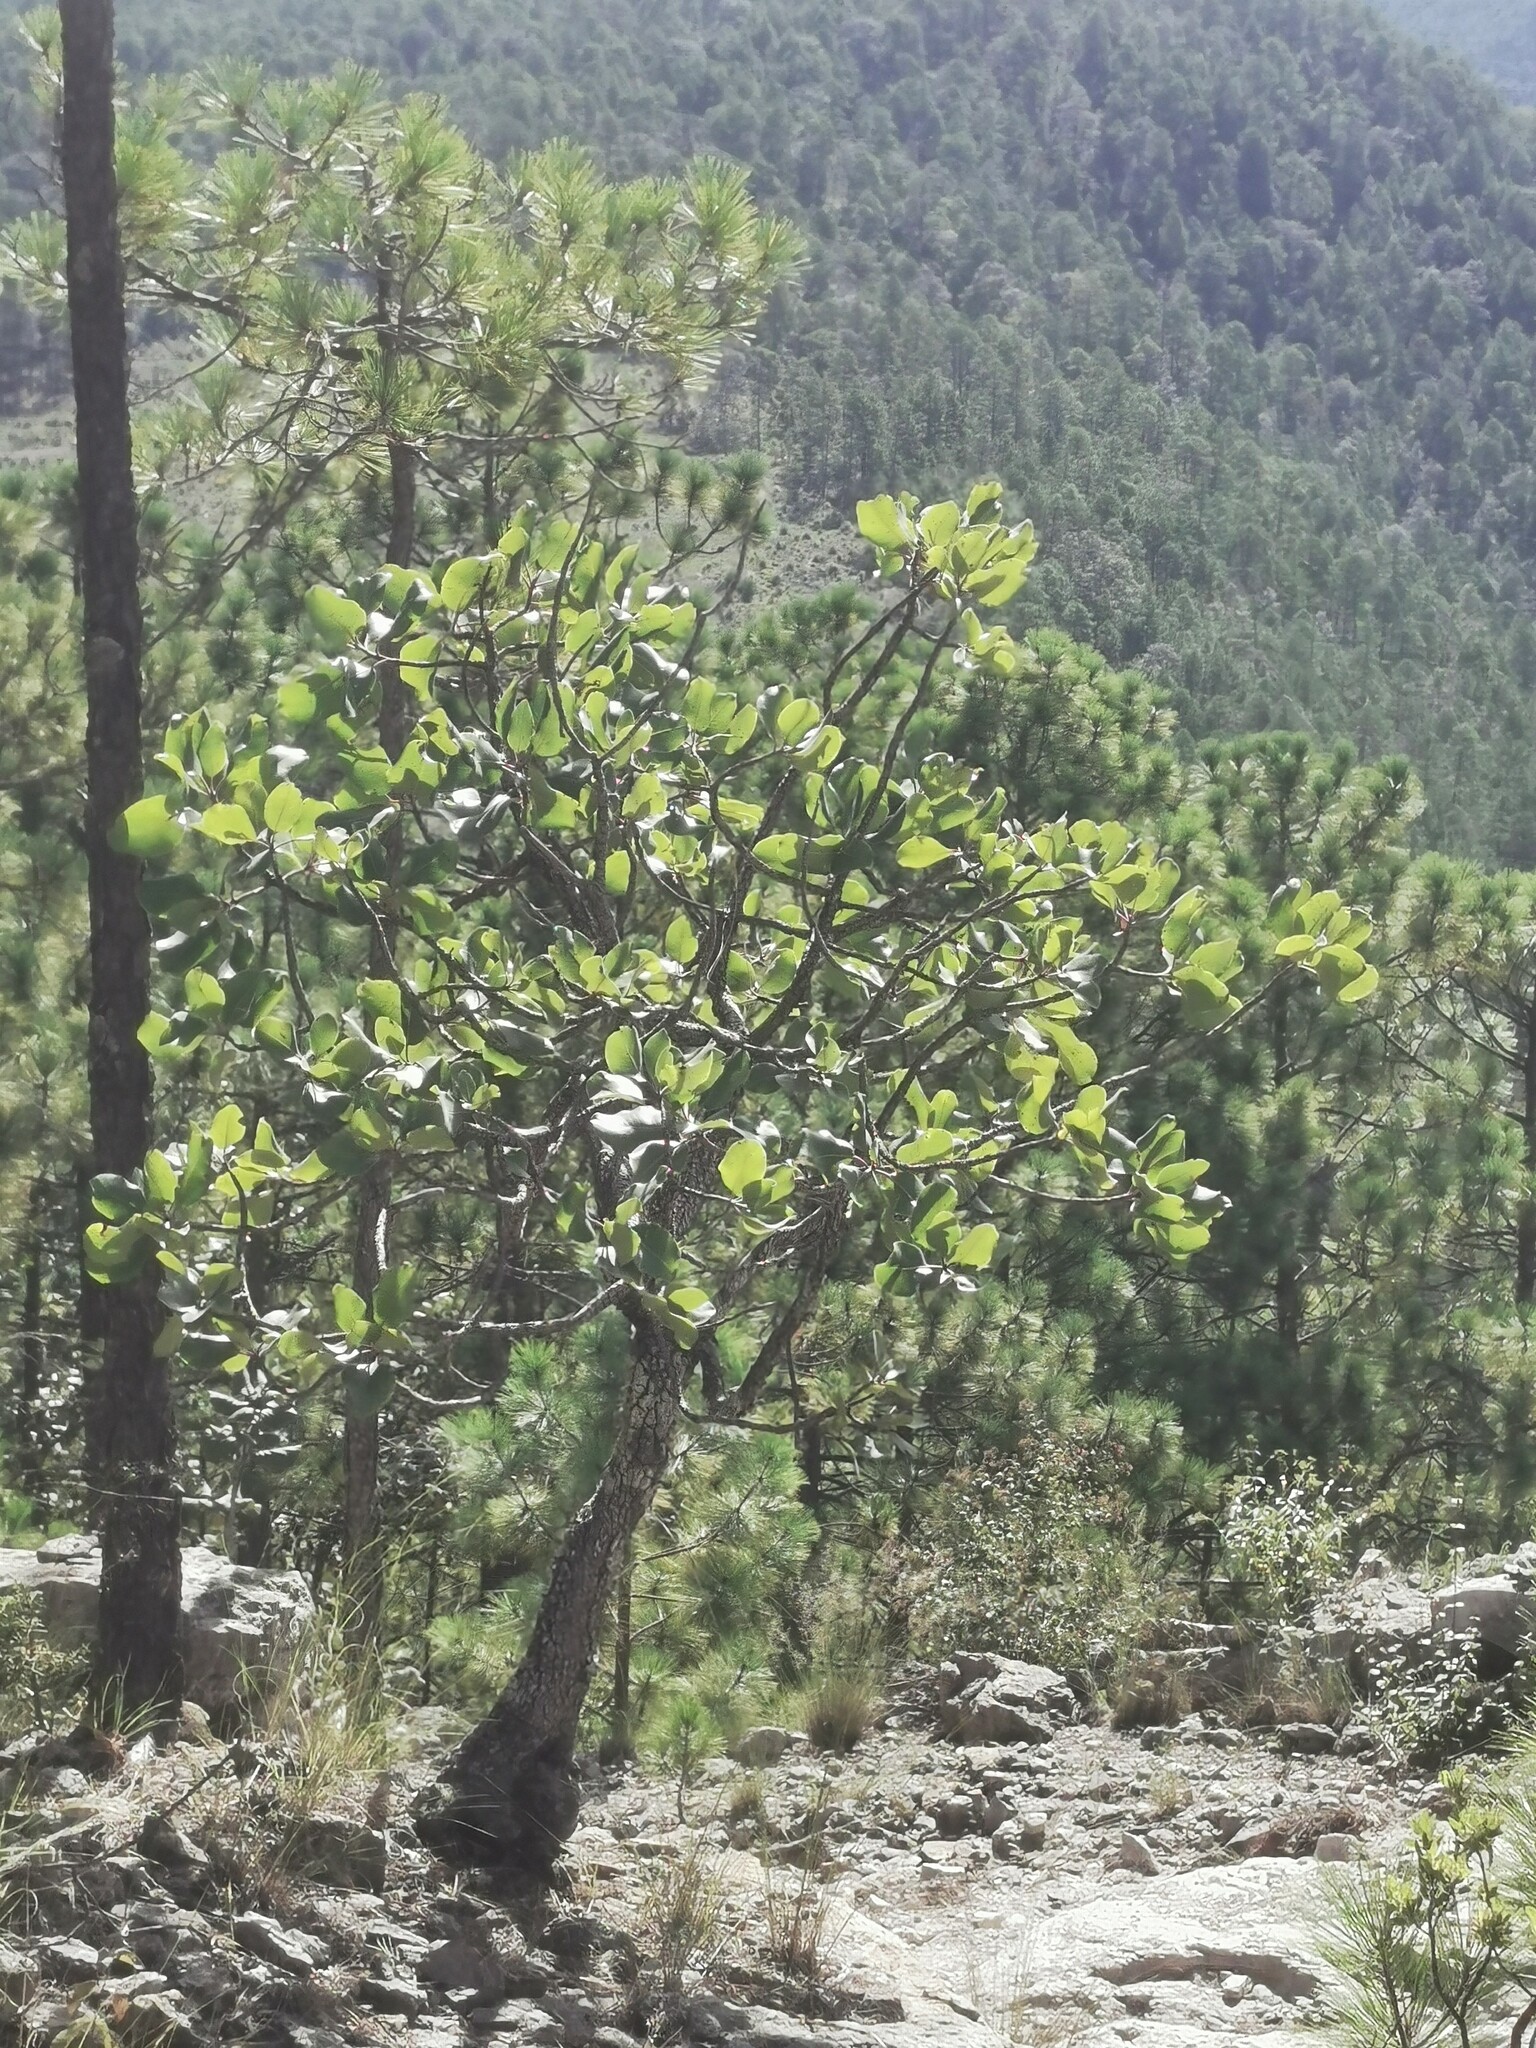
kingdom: Plantae
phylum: Tracheophyta
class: Magnoliopsida
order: Ericales
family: Ericaceae
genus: Arbutus
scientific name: Arbutus madrensis
